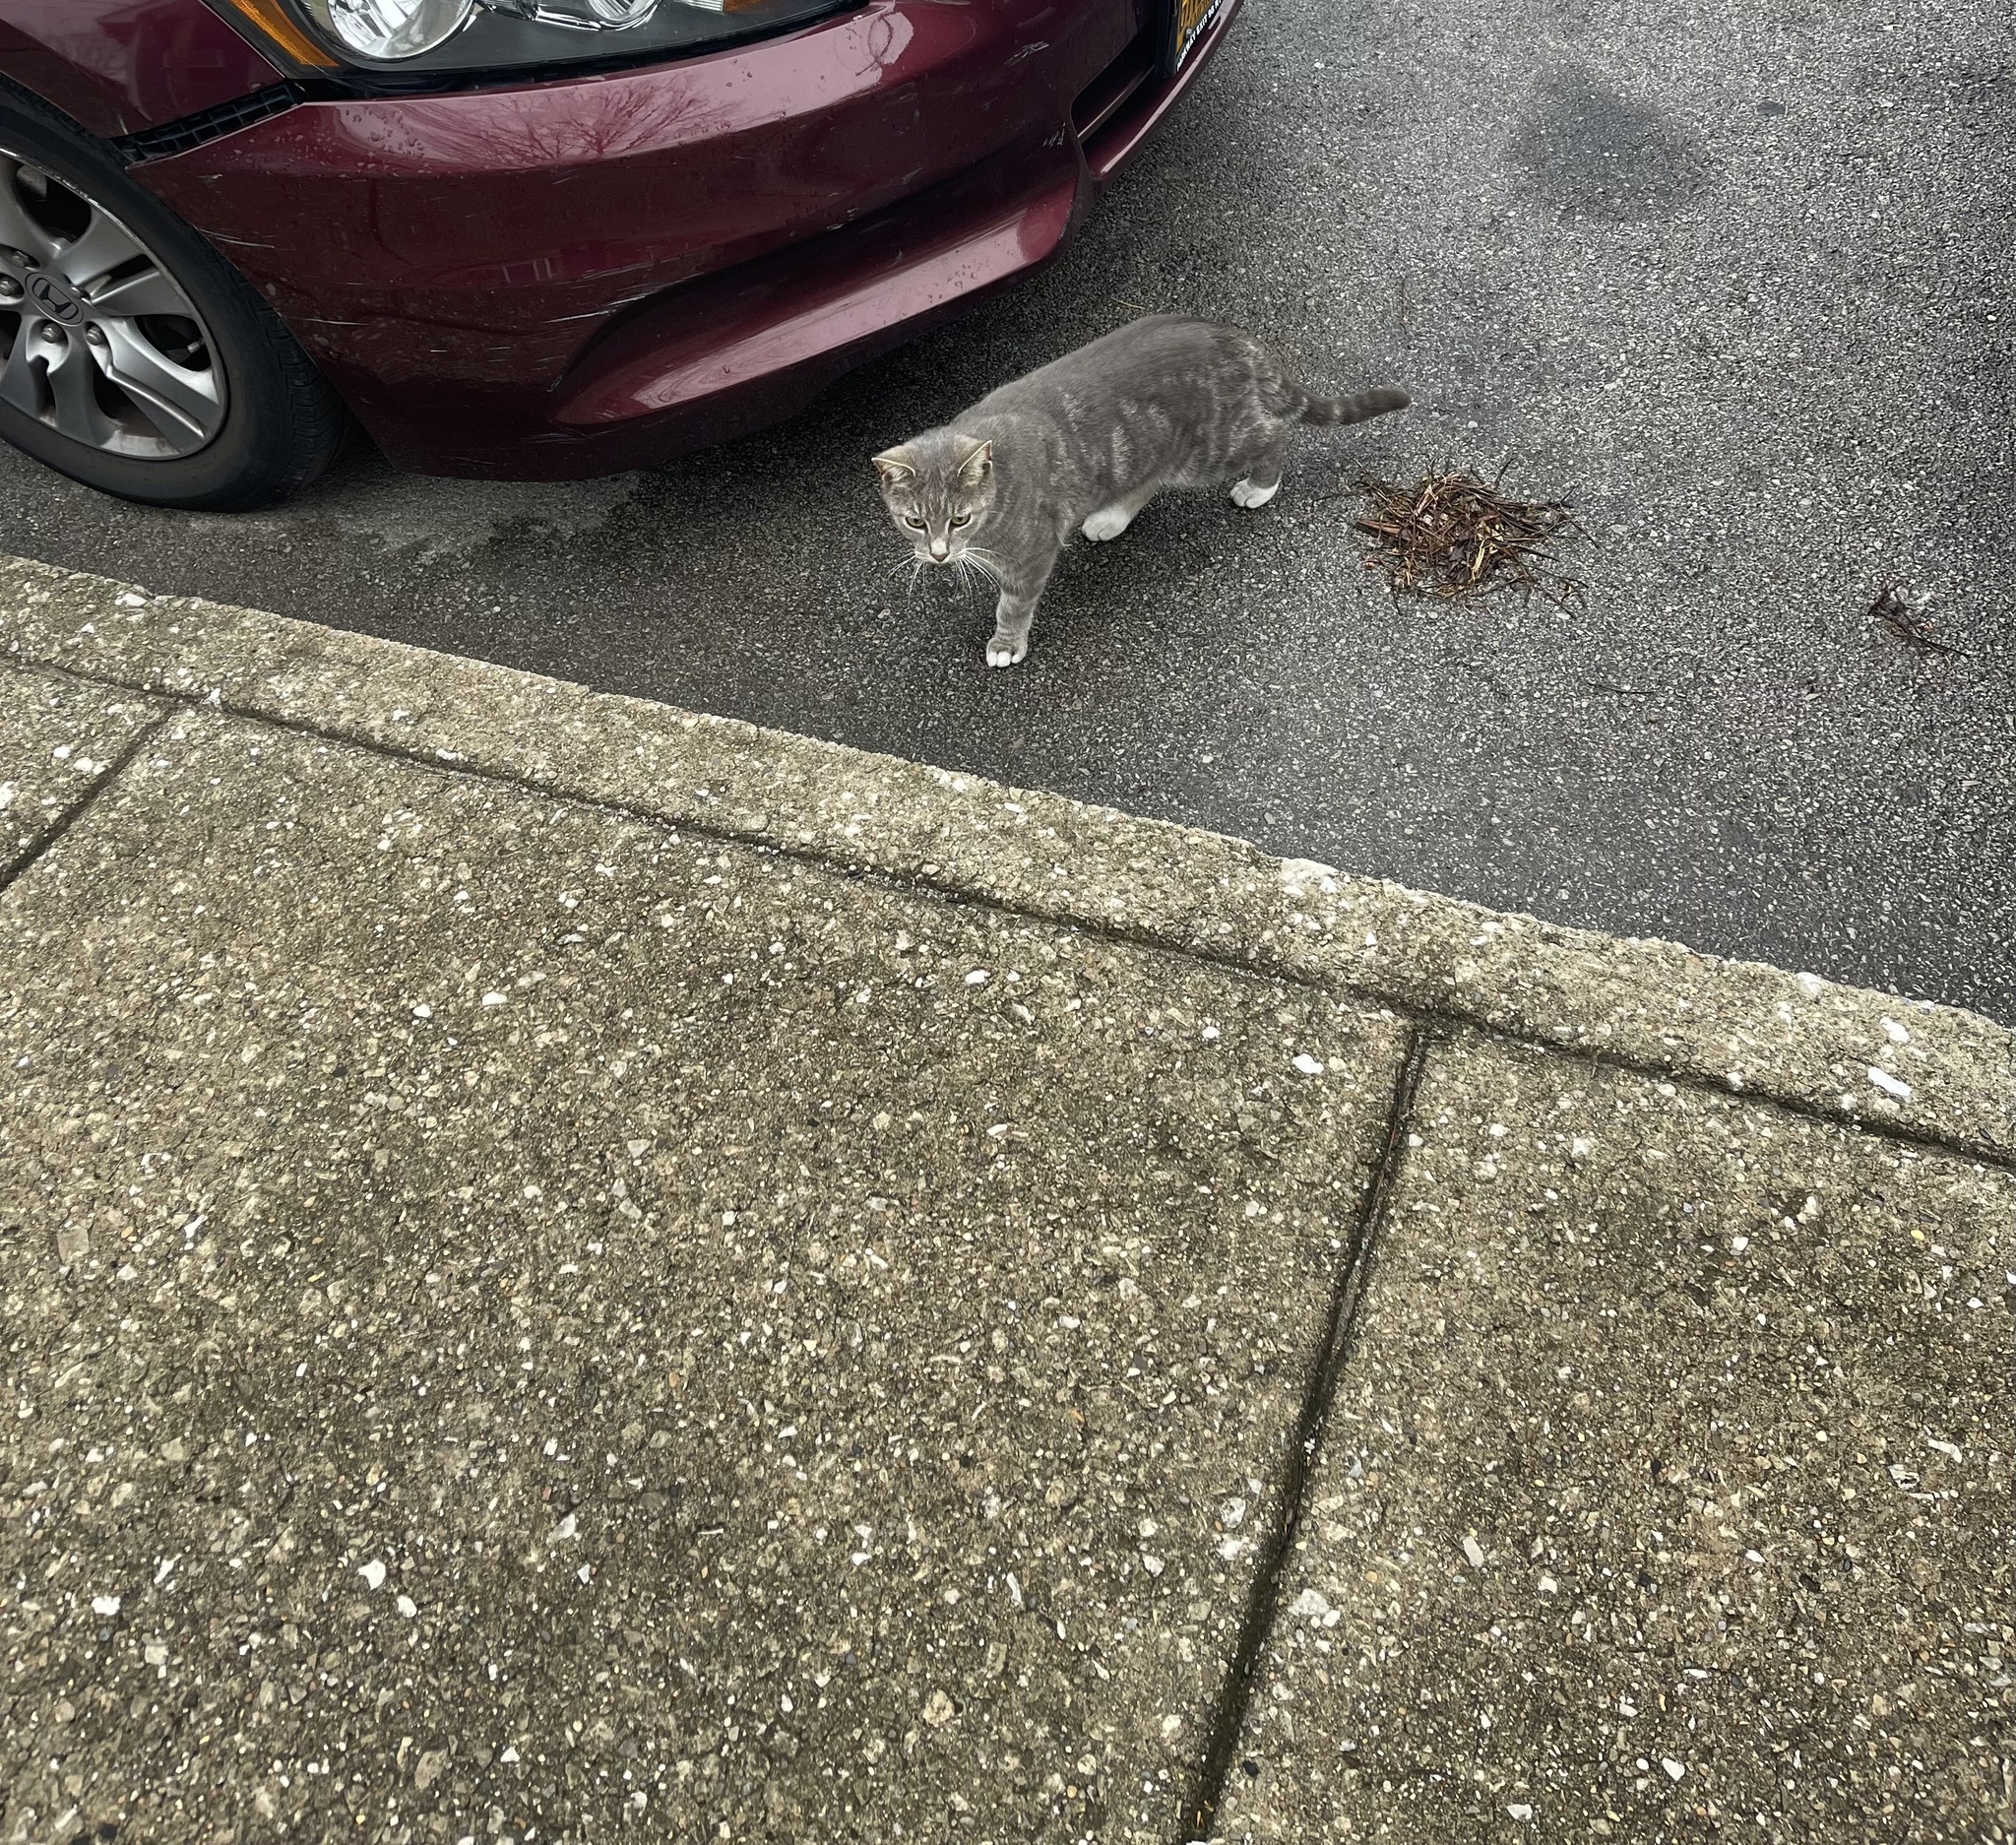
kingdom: Animalia
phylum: Chordata
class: Mammalia
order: Carnivora
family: Felidae
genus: Felis
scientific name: Felis catus
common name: Domestic cat
